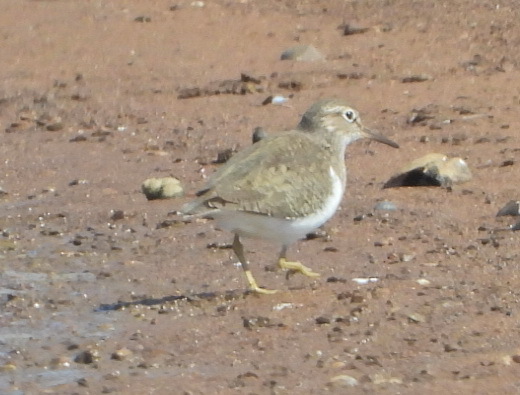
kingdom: Animalia
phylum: Chordata
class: Aves
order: Charadriiformes
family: Scolopacidae
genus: Actitis
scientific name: Actitis hypoleucos
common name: Common sandpiper
